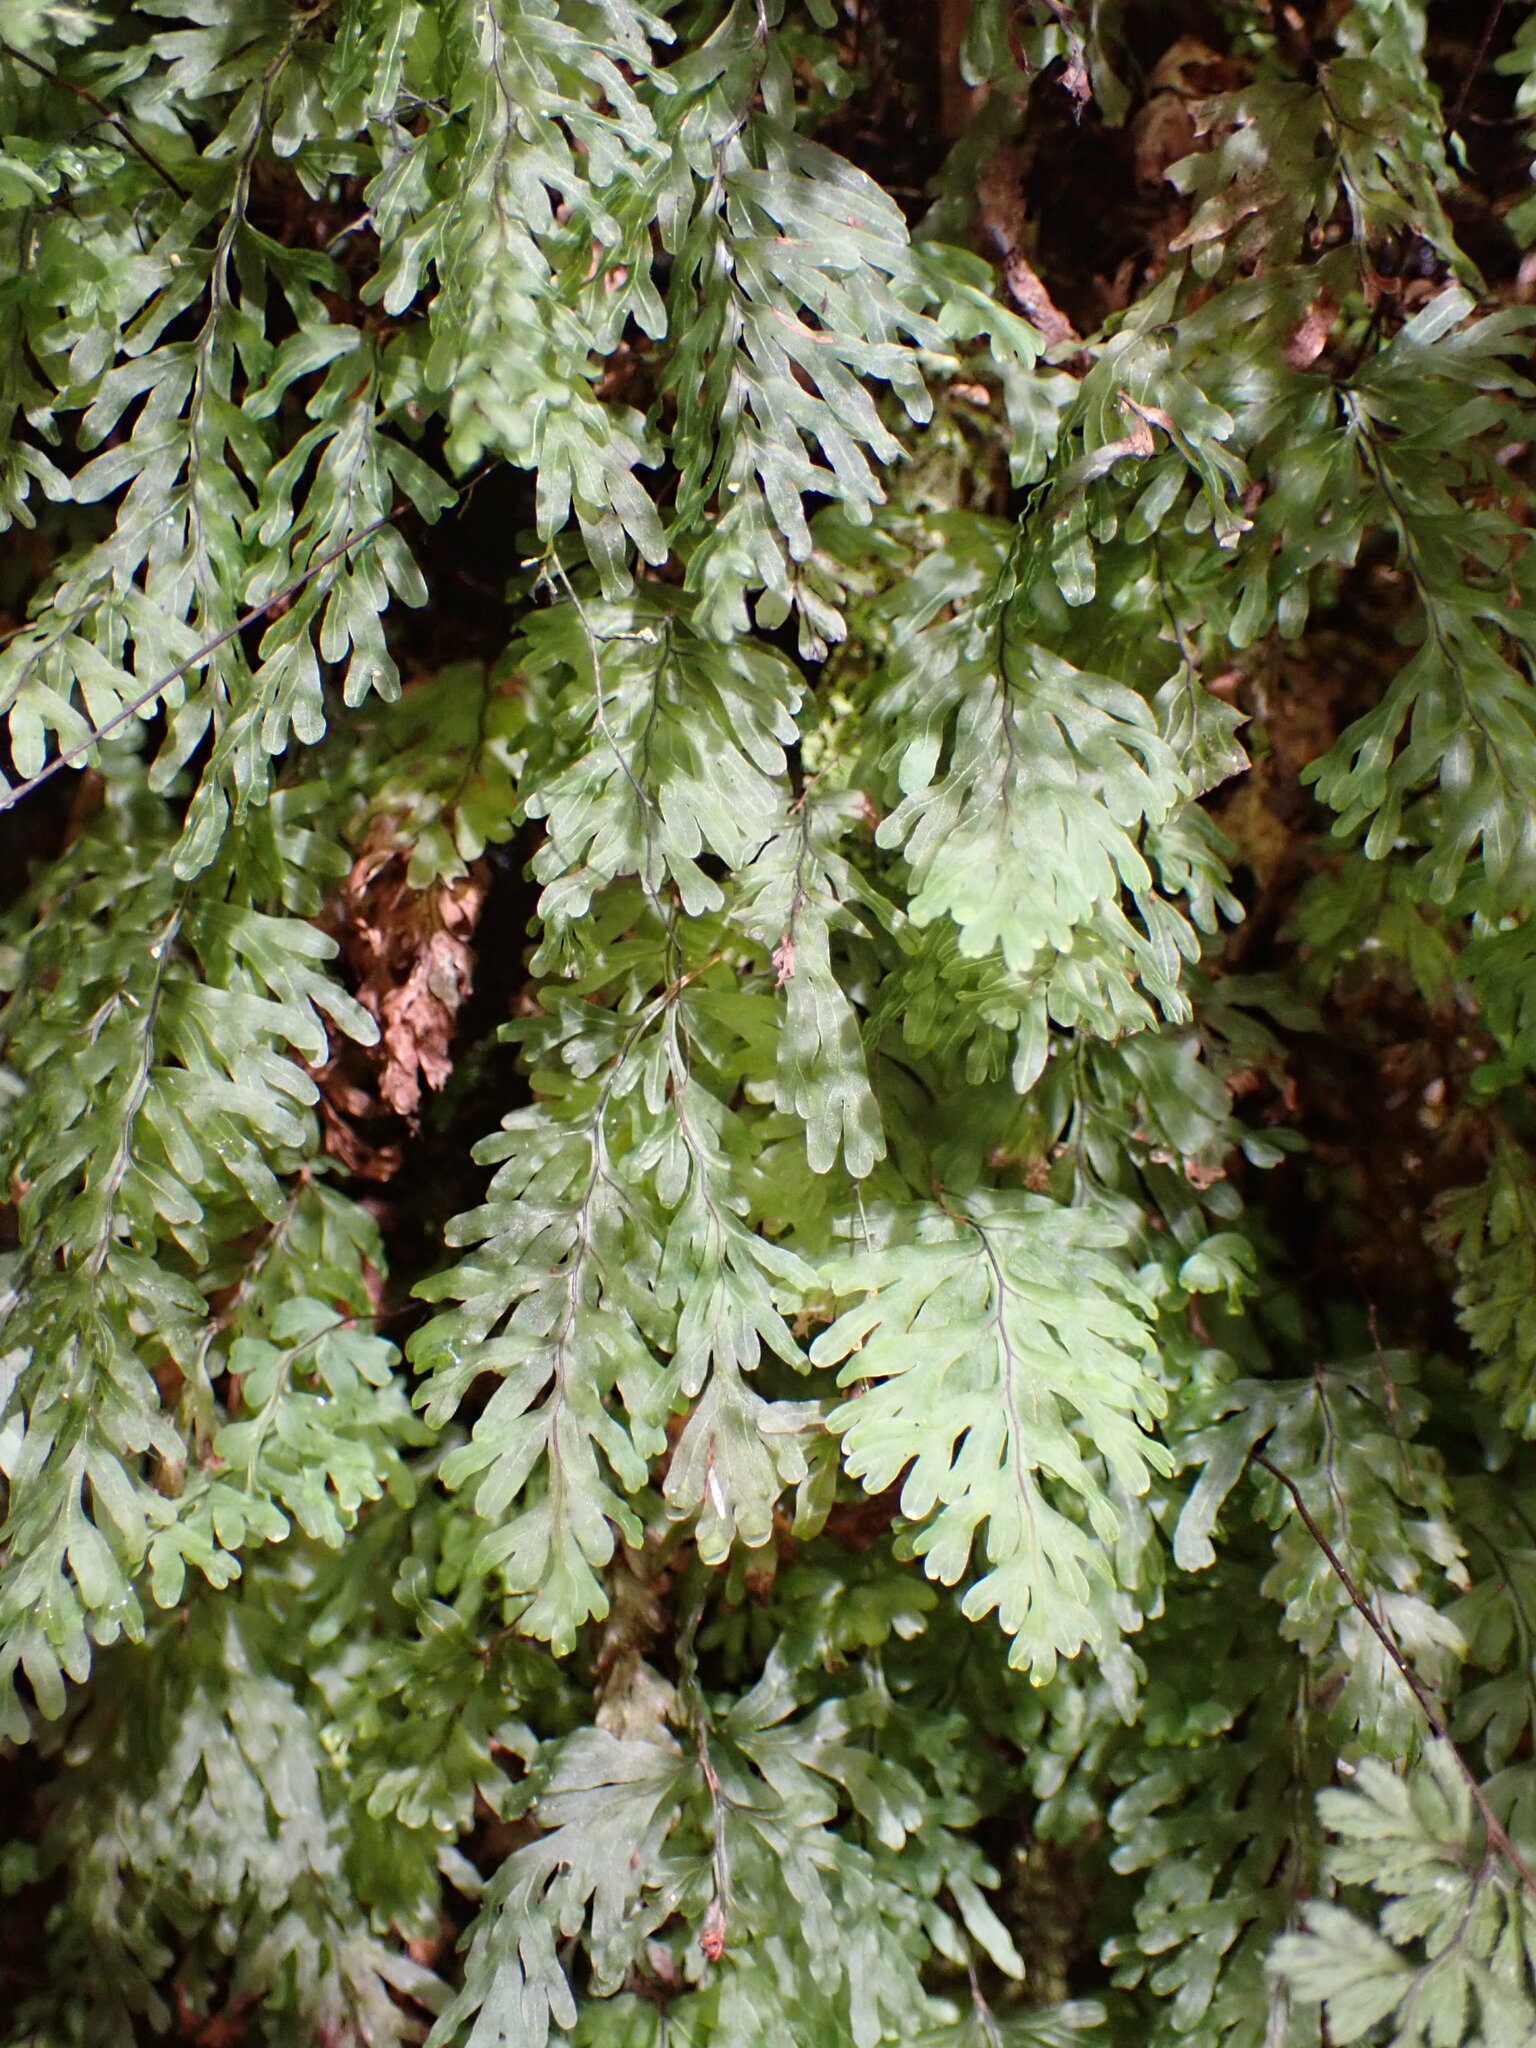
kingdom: Plantae
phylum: Tracheophyta
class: Polypodiopsida
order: Hymenophyllales
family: Hymenophyllaceae
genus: Hymenophyllum
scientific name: Hymenophyllum rarum
